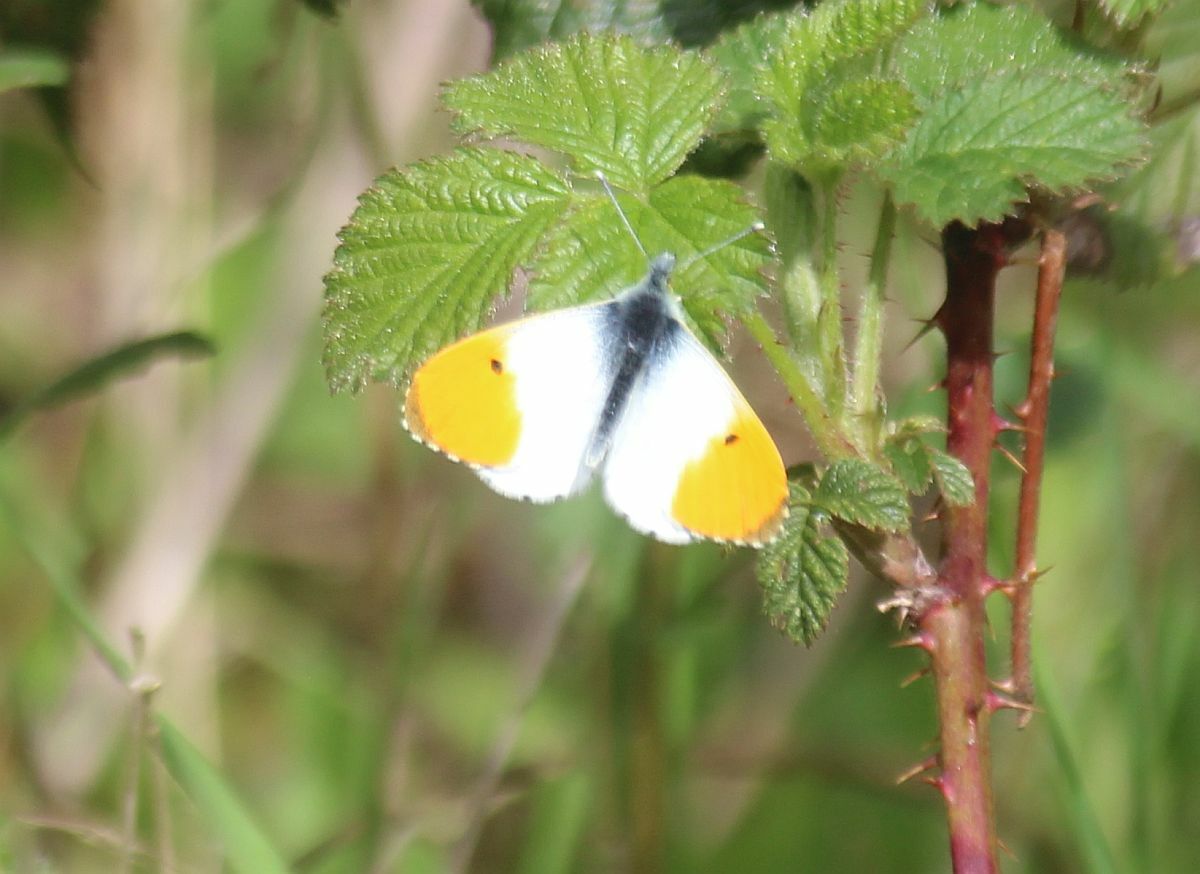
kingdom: Animalia
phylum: Arthropoda
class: Insecta
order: Lepidoptera
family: Pieridae
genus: Anthocharis
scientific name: Anthocharis cardamines
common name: Orange-tip
